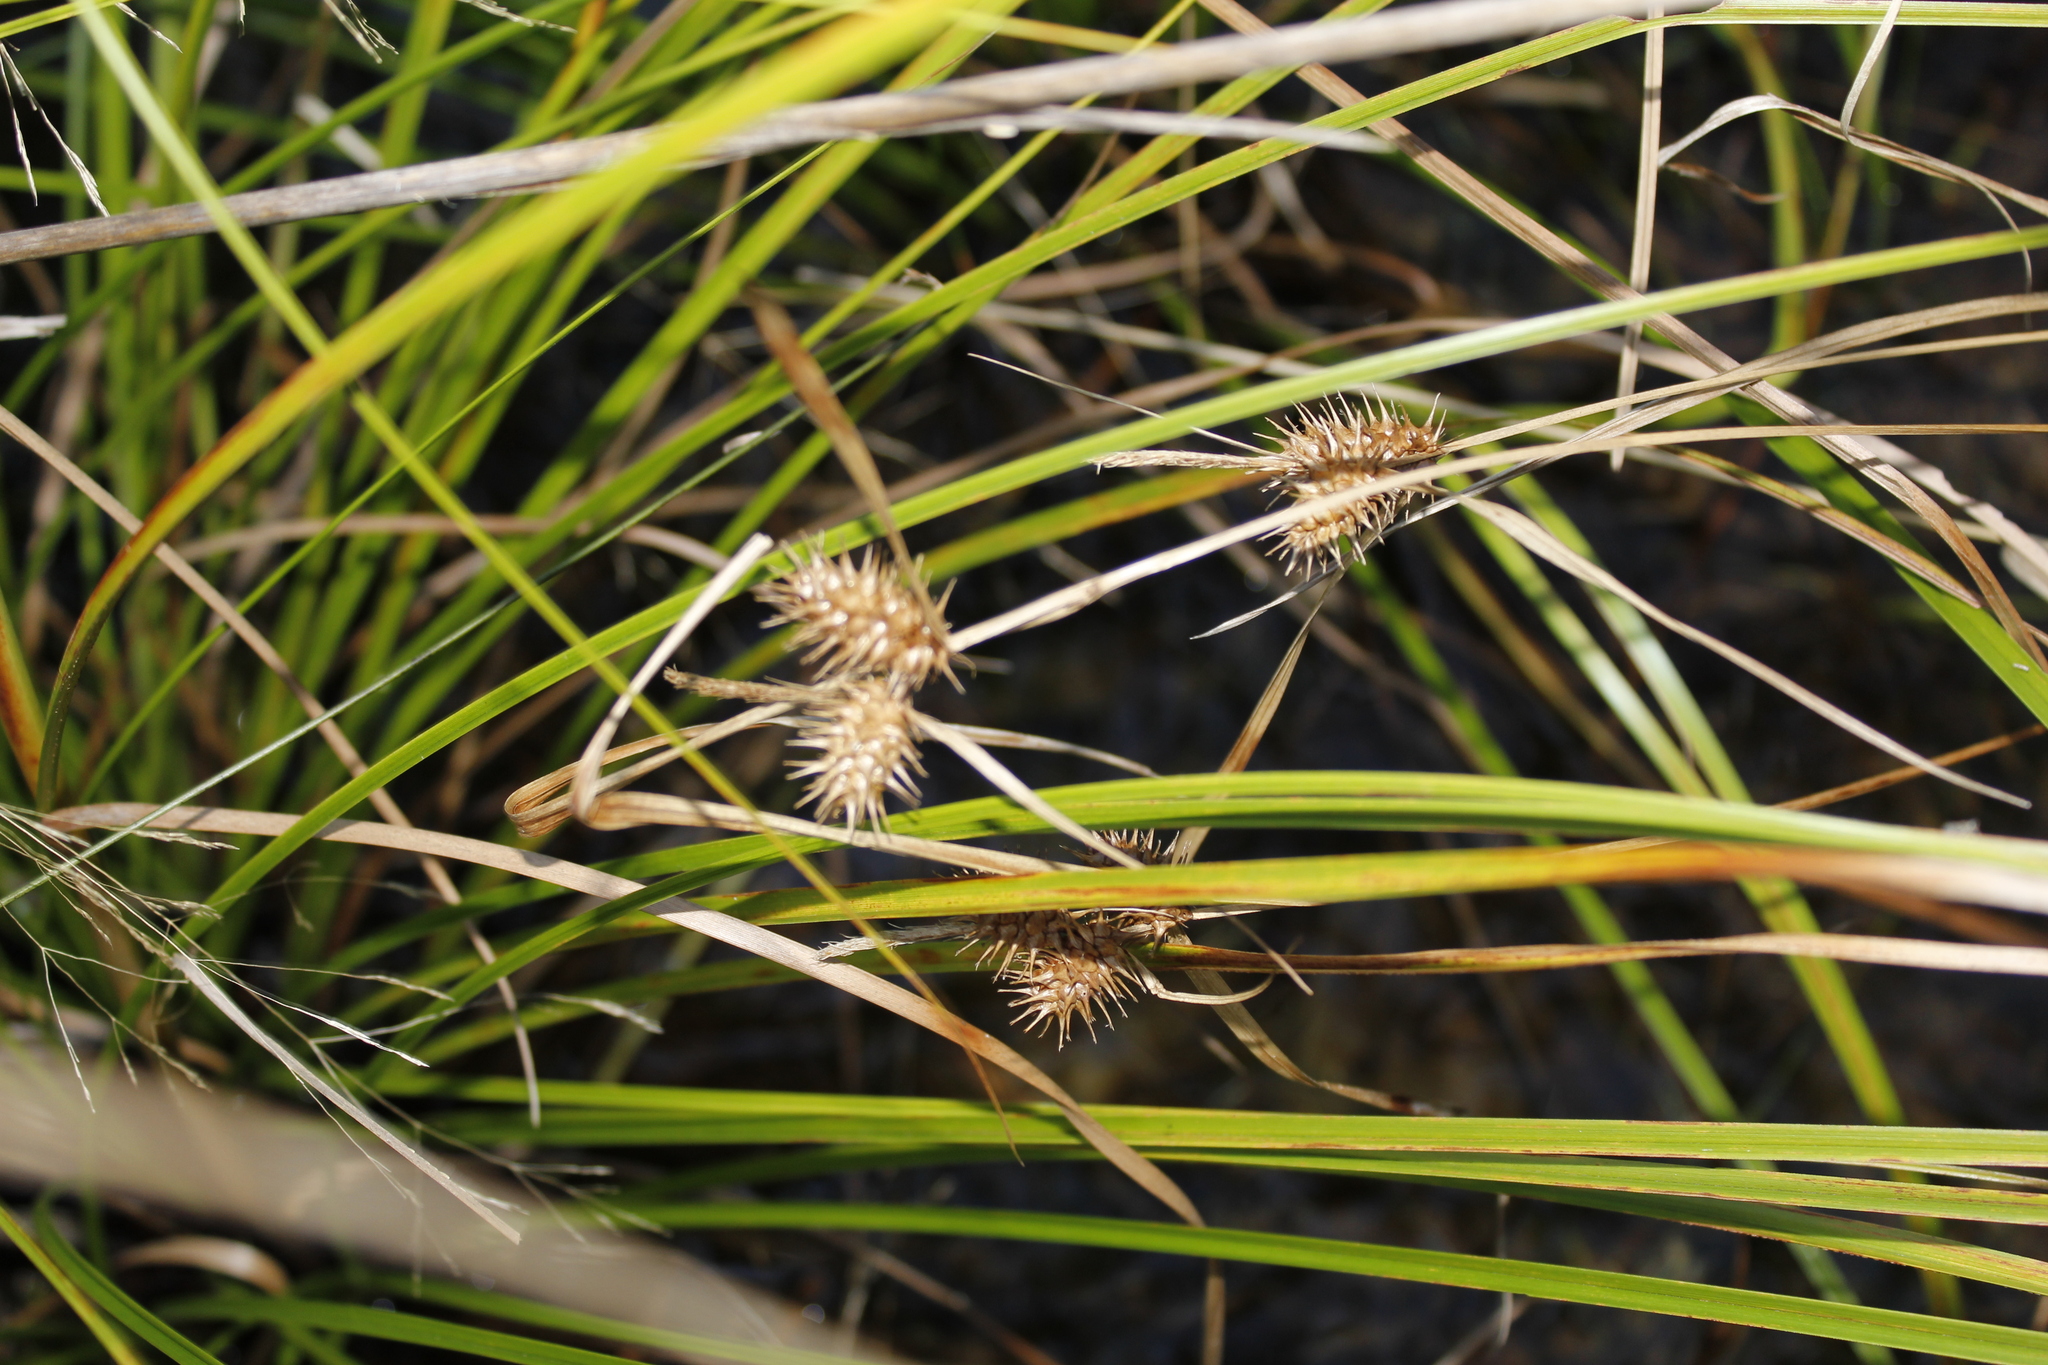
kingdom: Plantae
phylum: Tracheophyta
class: Liliopsida
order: Poales
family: Cyperaceae
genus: Carex
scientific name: Carex lurida
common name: Sallow sedge
